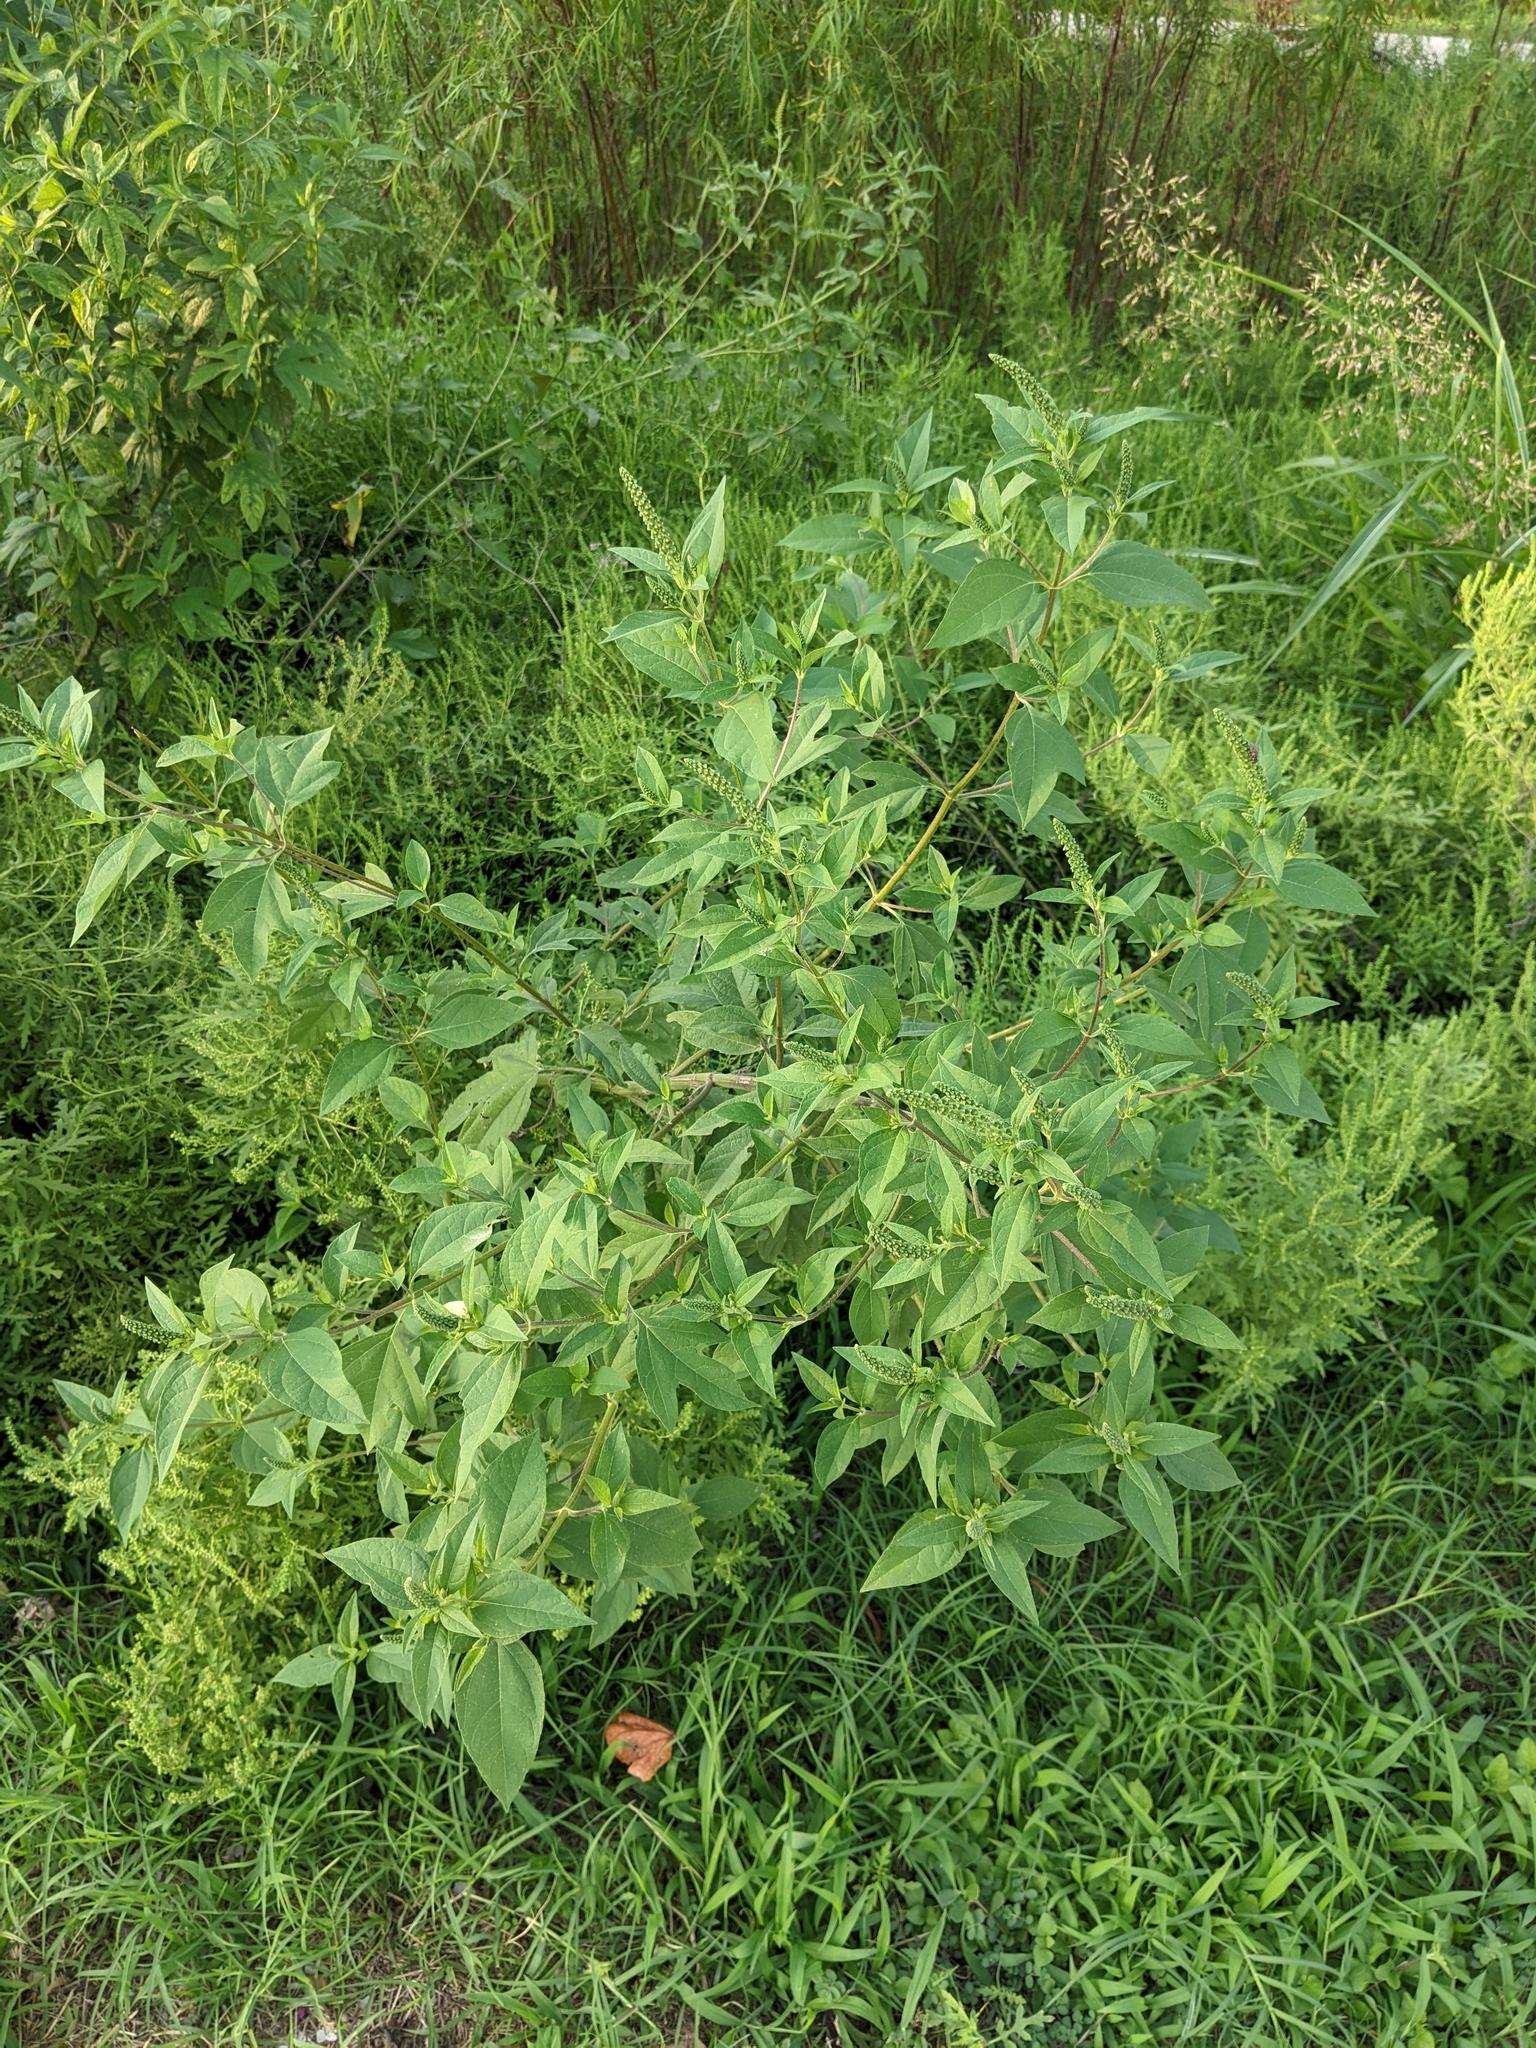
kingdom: Plantae
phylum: Tracheophyta
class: Magnoliopsida
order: Asterales
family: Asteraceae
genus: Ambrosia
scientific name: Ambrosia trifida
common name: Giant ragweed
